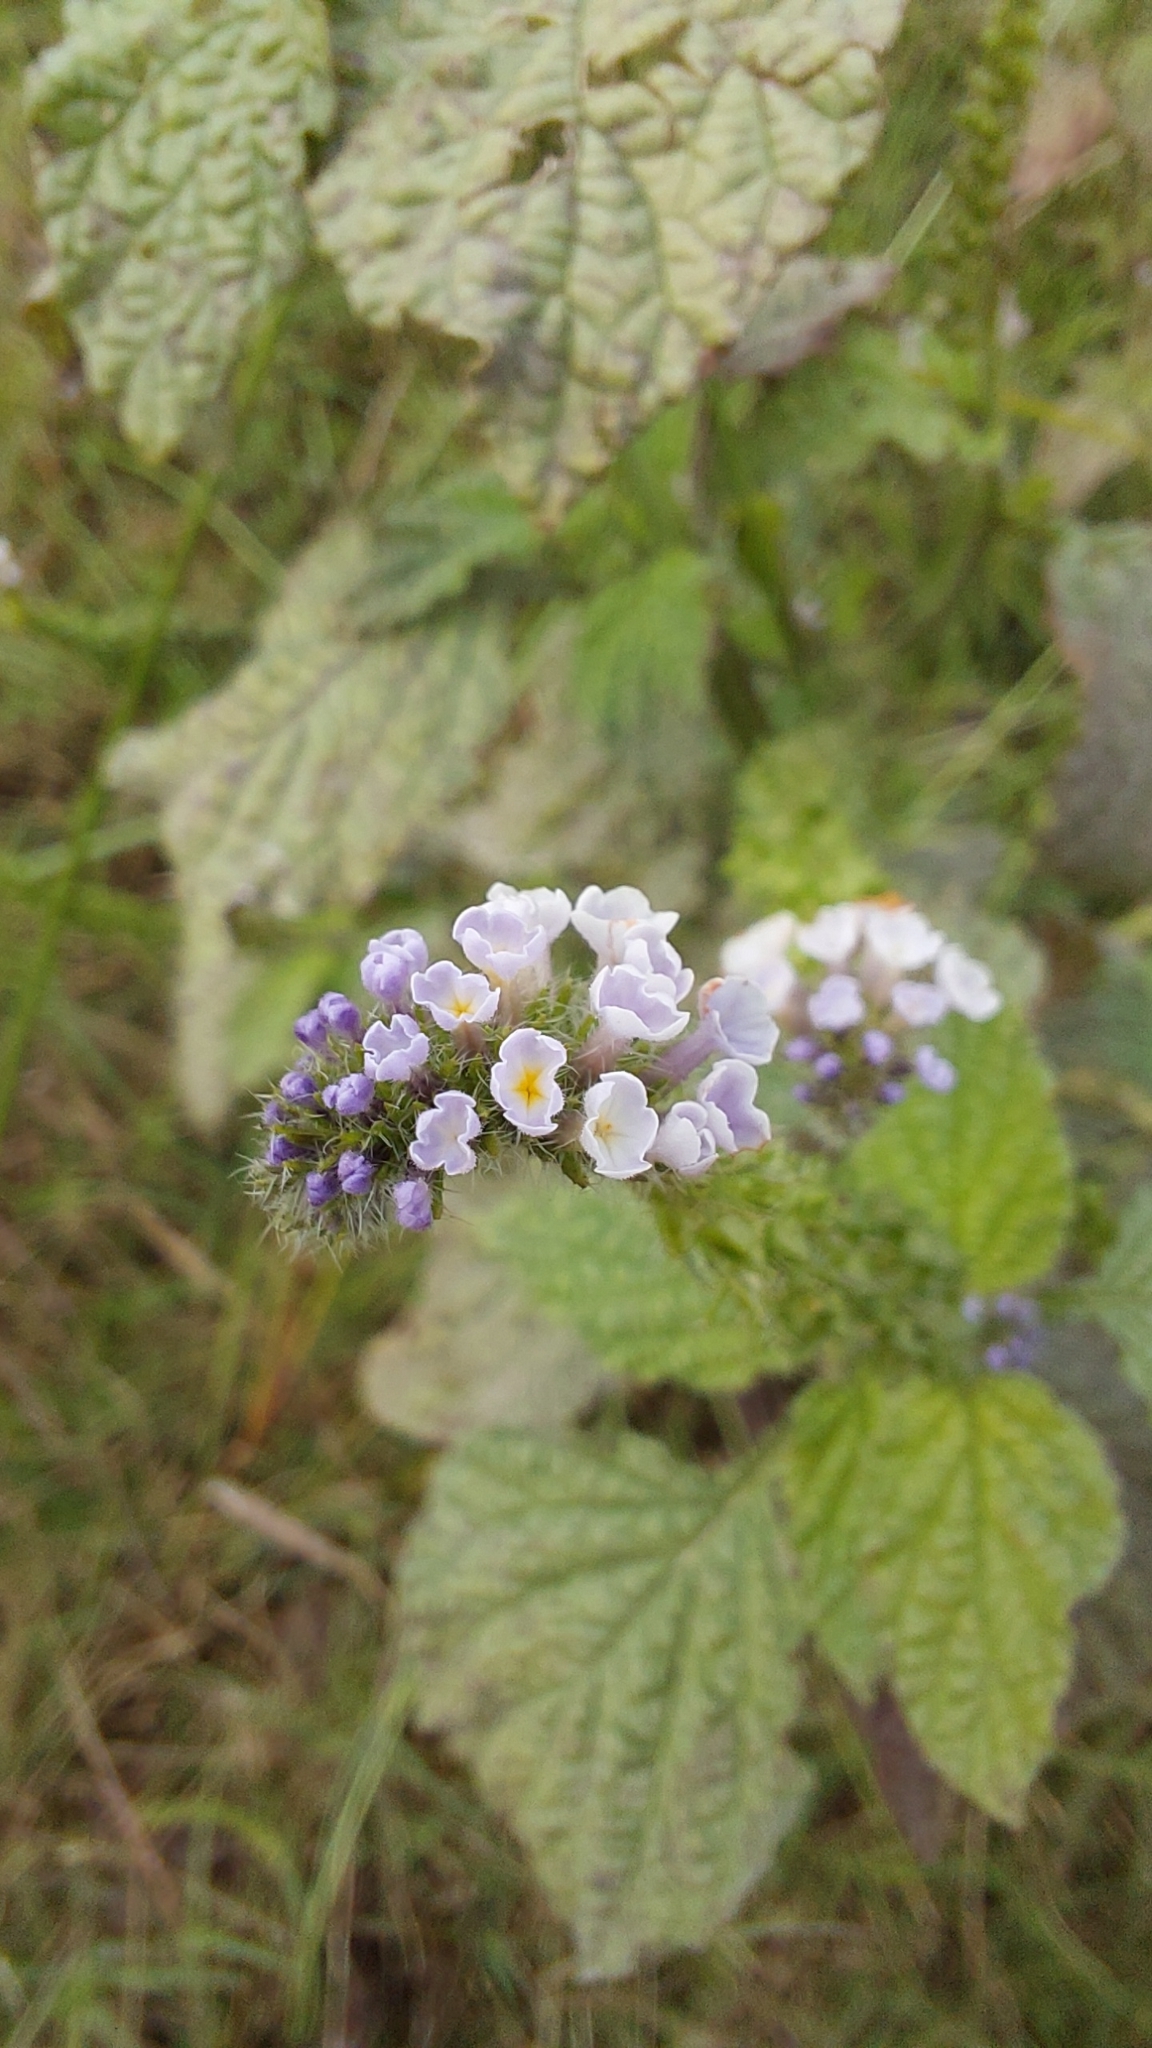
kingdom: Plantae
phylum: Tracheophyta
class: Magnoliopsida
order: Boraginales
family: Heliotropiaceae
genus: Heliotropium
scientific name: Heliotropium elongatum
